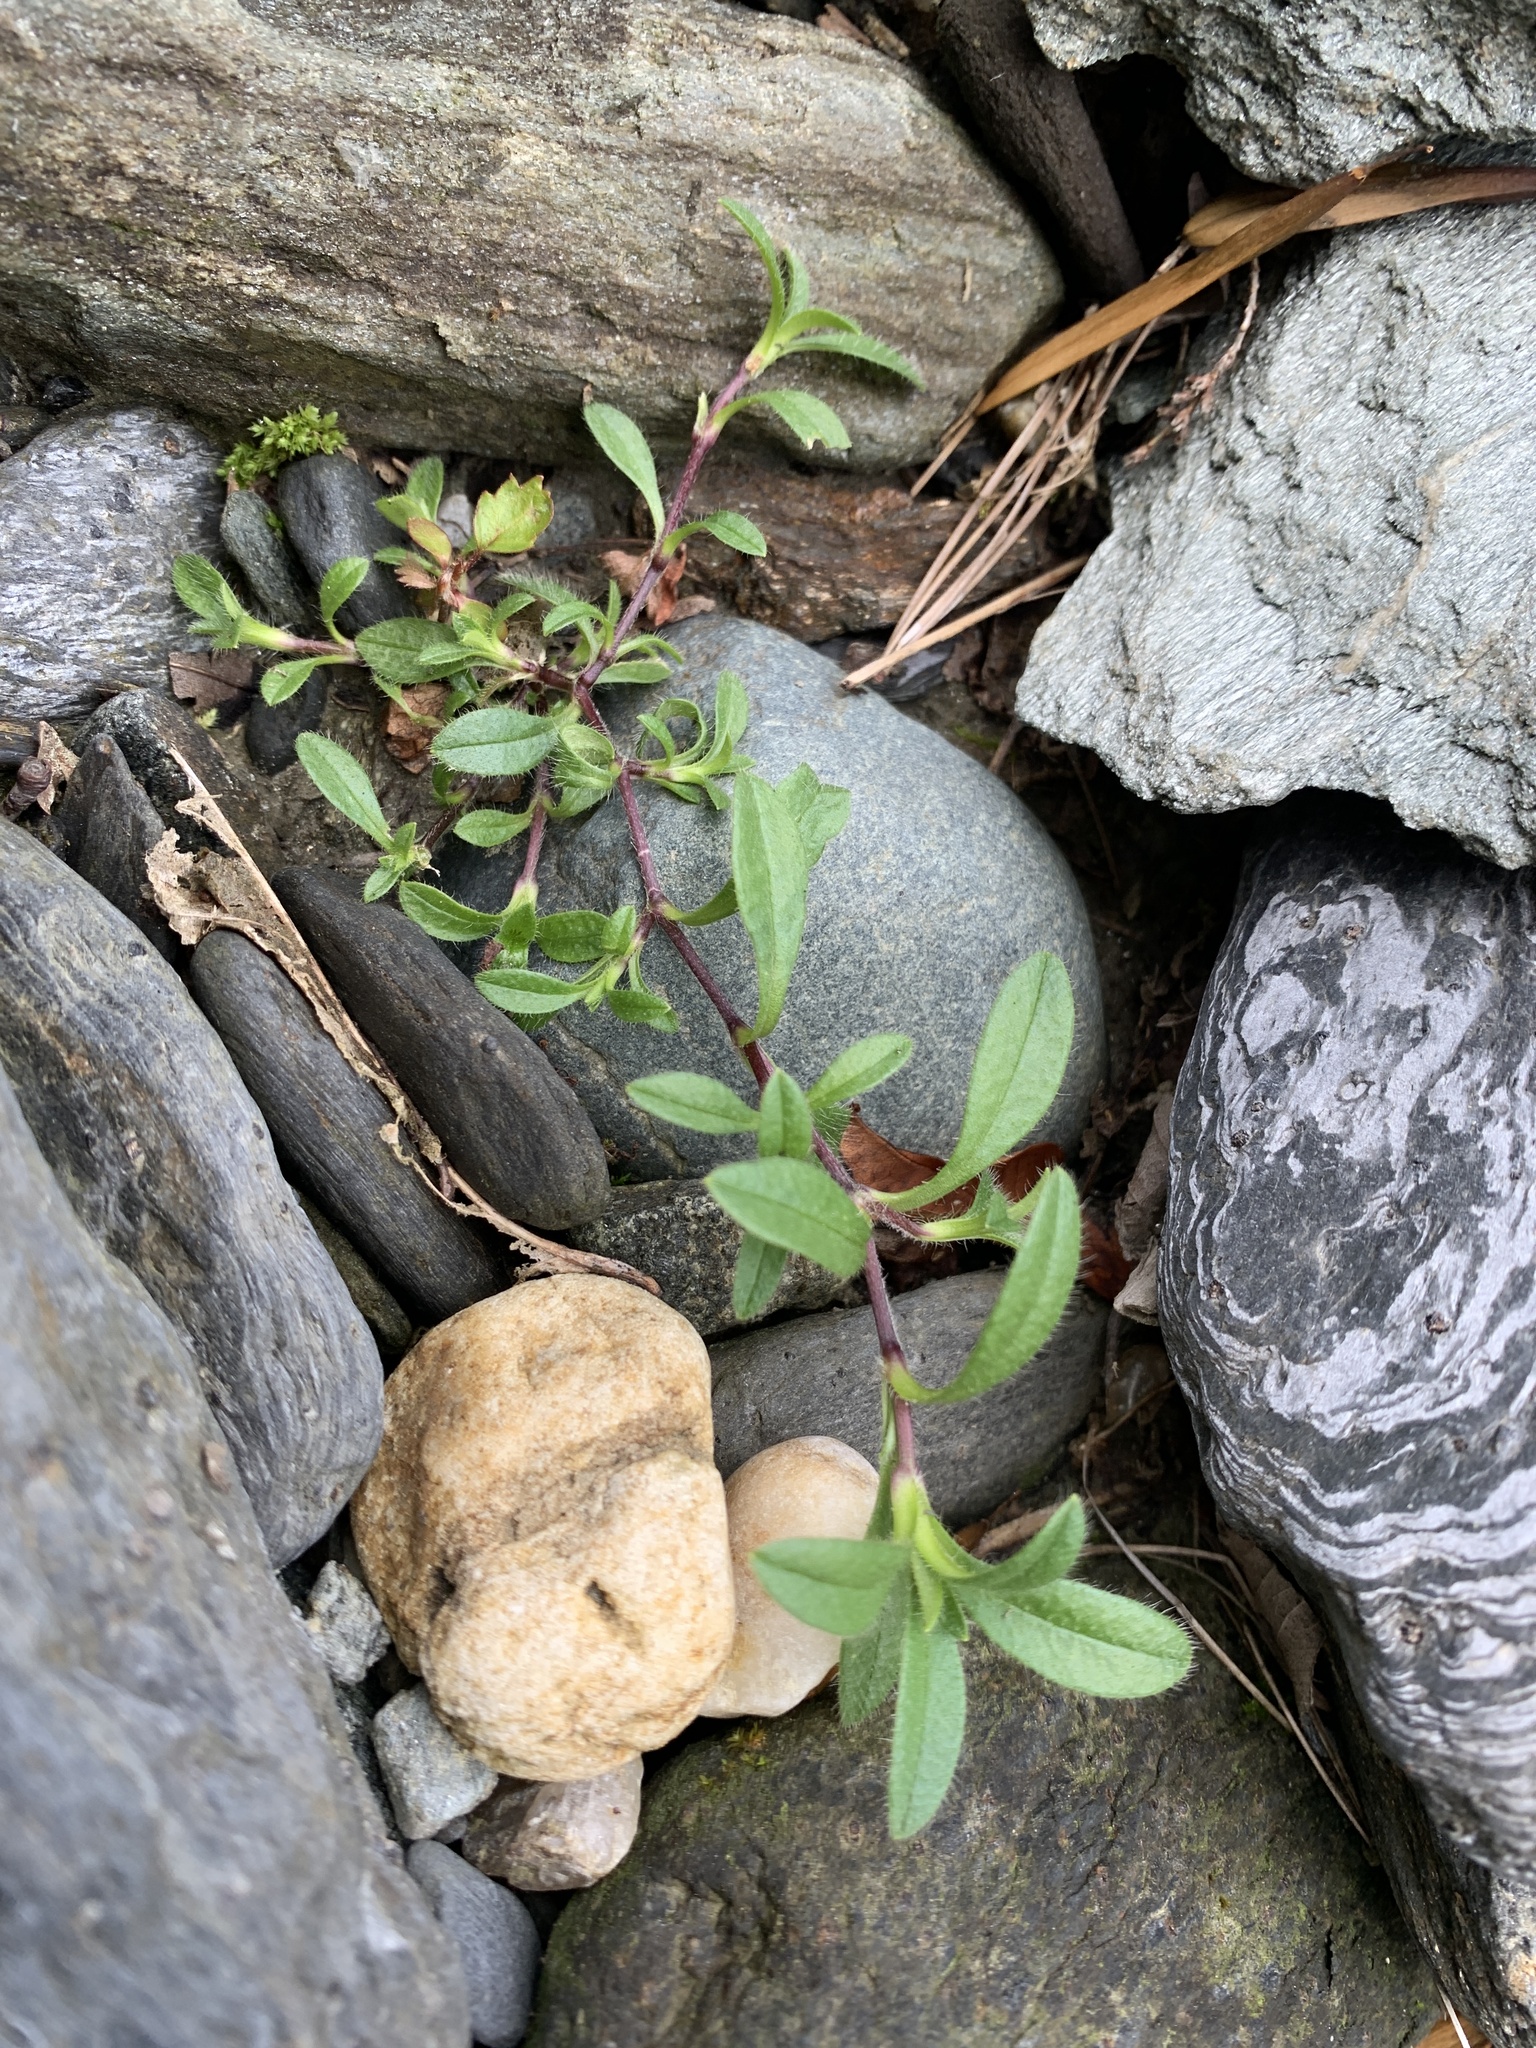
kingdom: Plantae
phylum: Tracheophyta
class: Magnoliopsida
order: Caryophyllales
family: Caryophyllaceae
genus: Cerastium
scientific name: Cerastium fontanum
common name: Common mouse-ear
